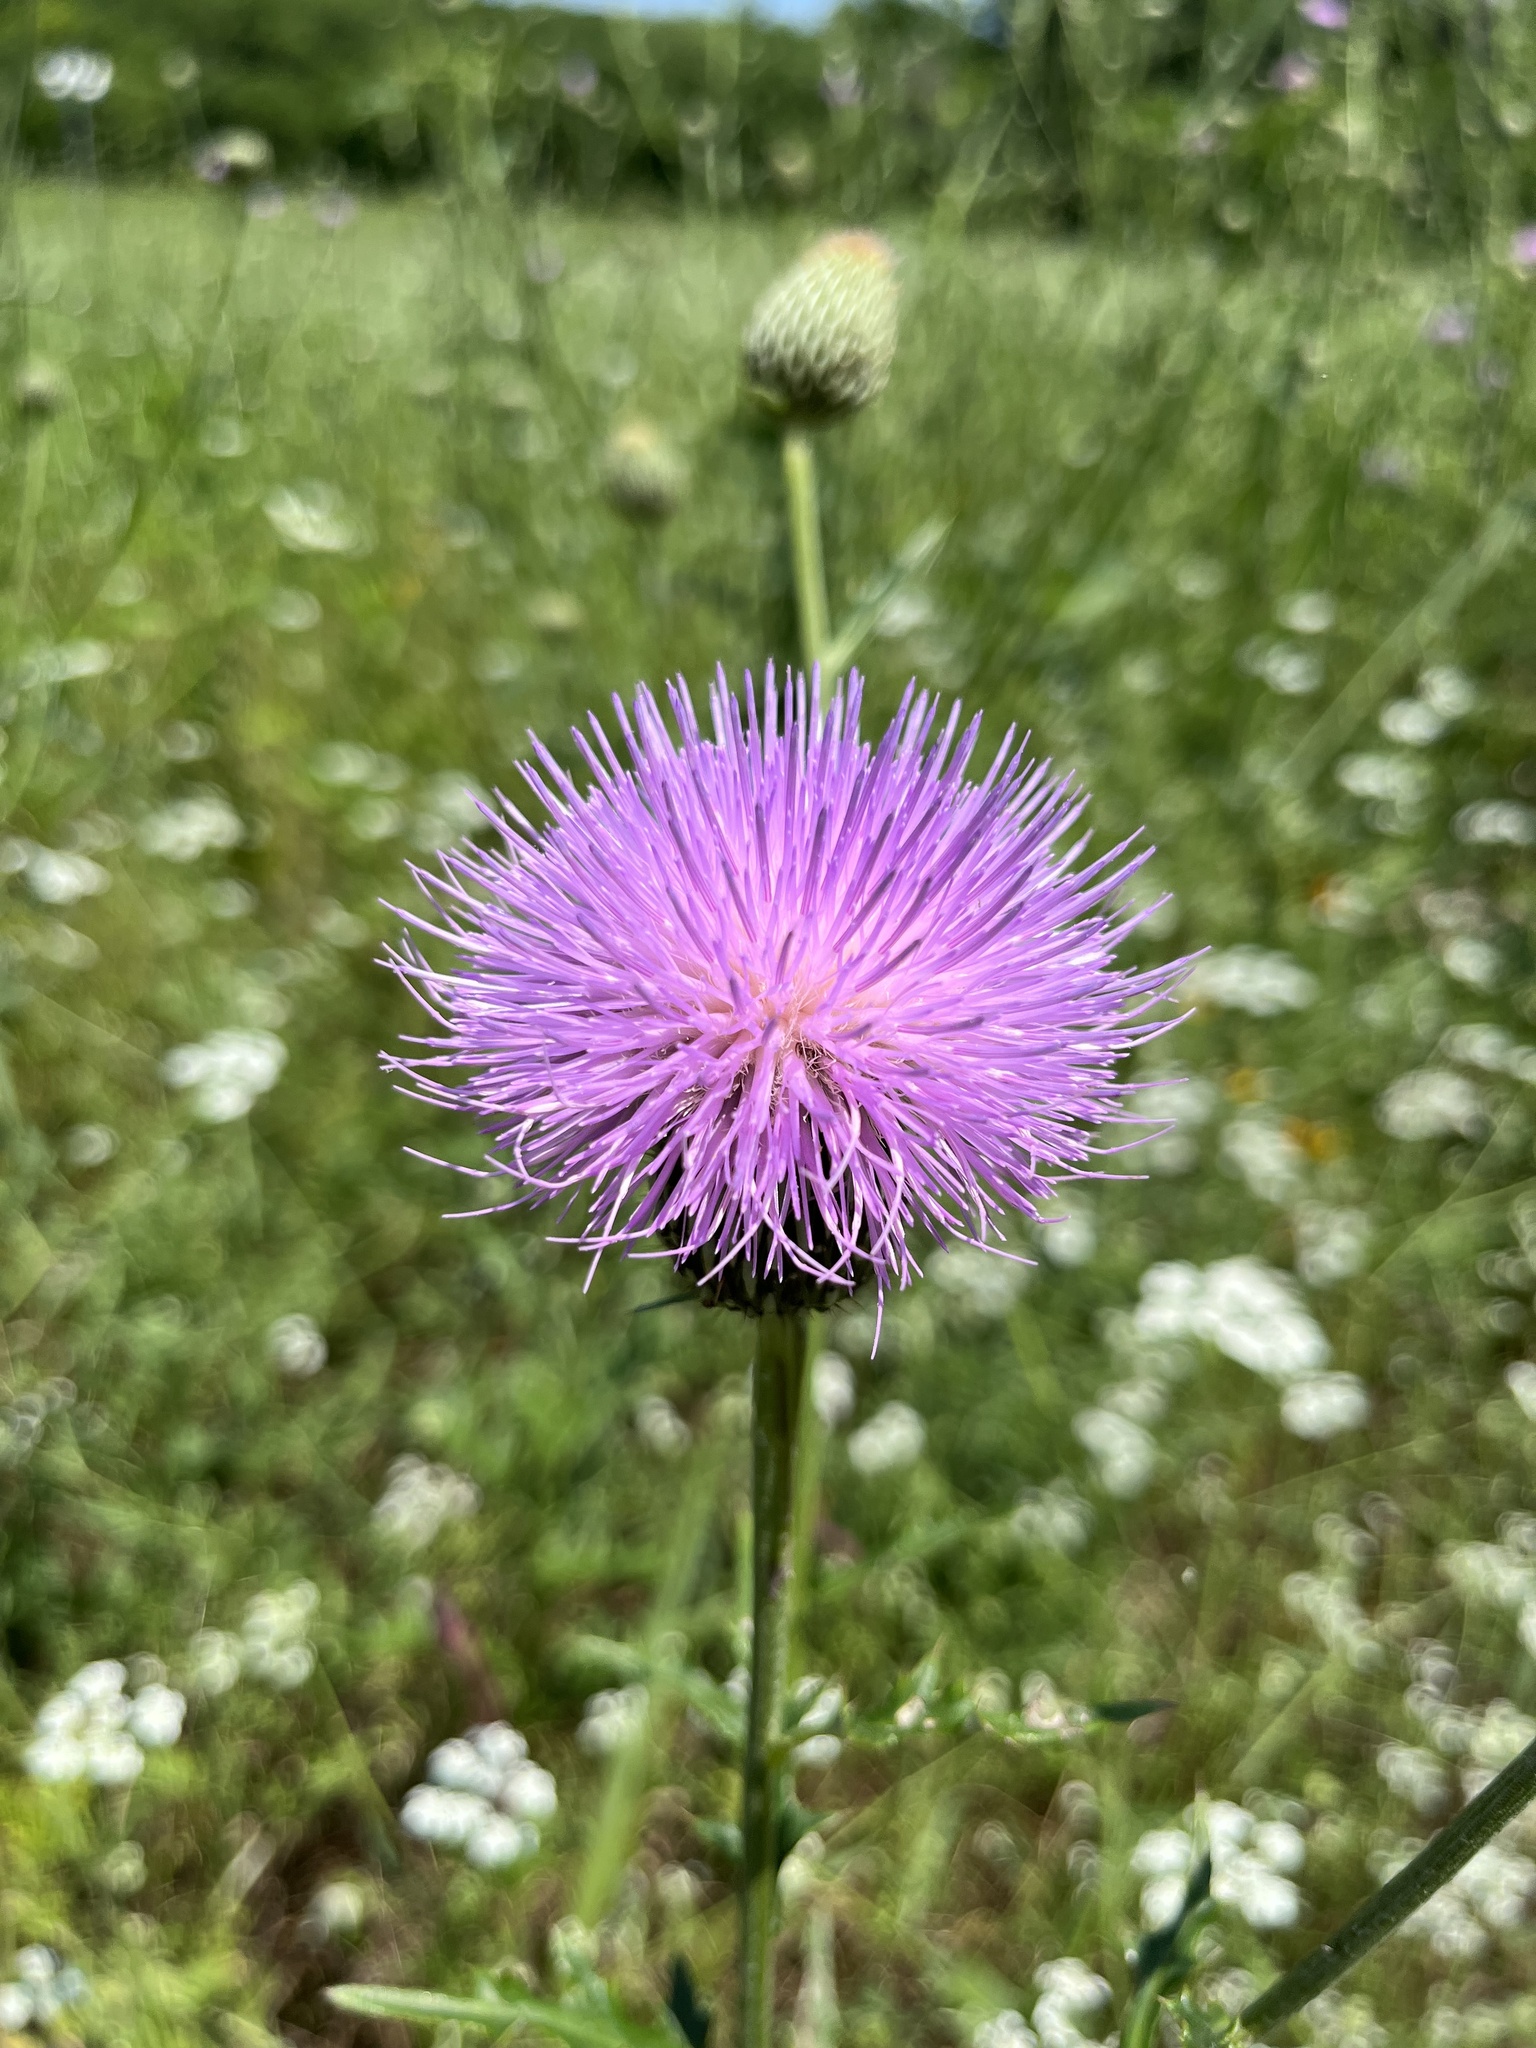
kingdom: Plantae
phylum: Tracheophyta
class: Magnoliopsida
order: Asterales
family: Asteraceae
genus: Cirsium
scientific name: Cirsium texanum
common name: Texas purple thistle
